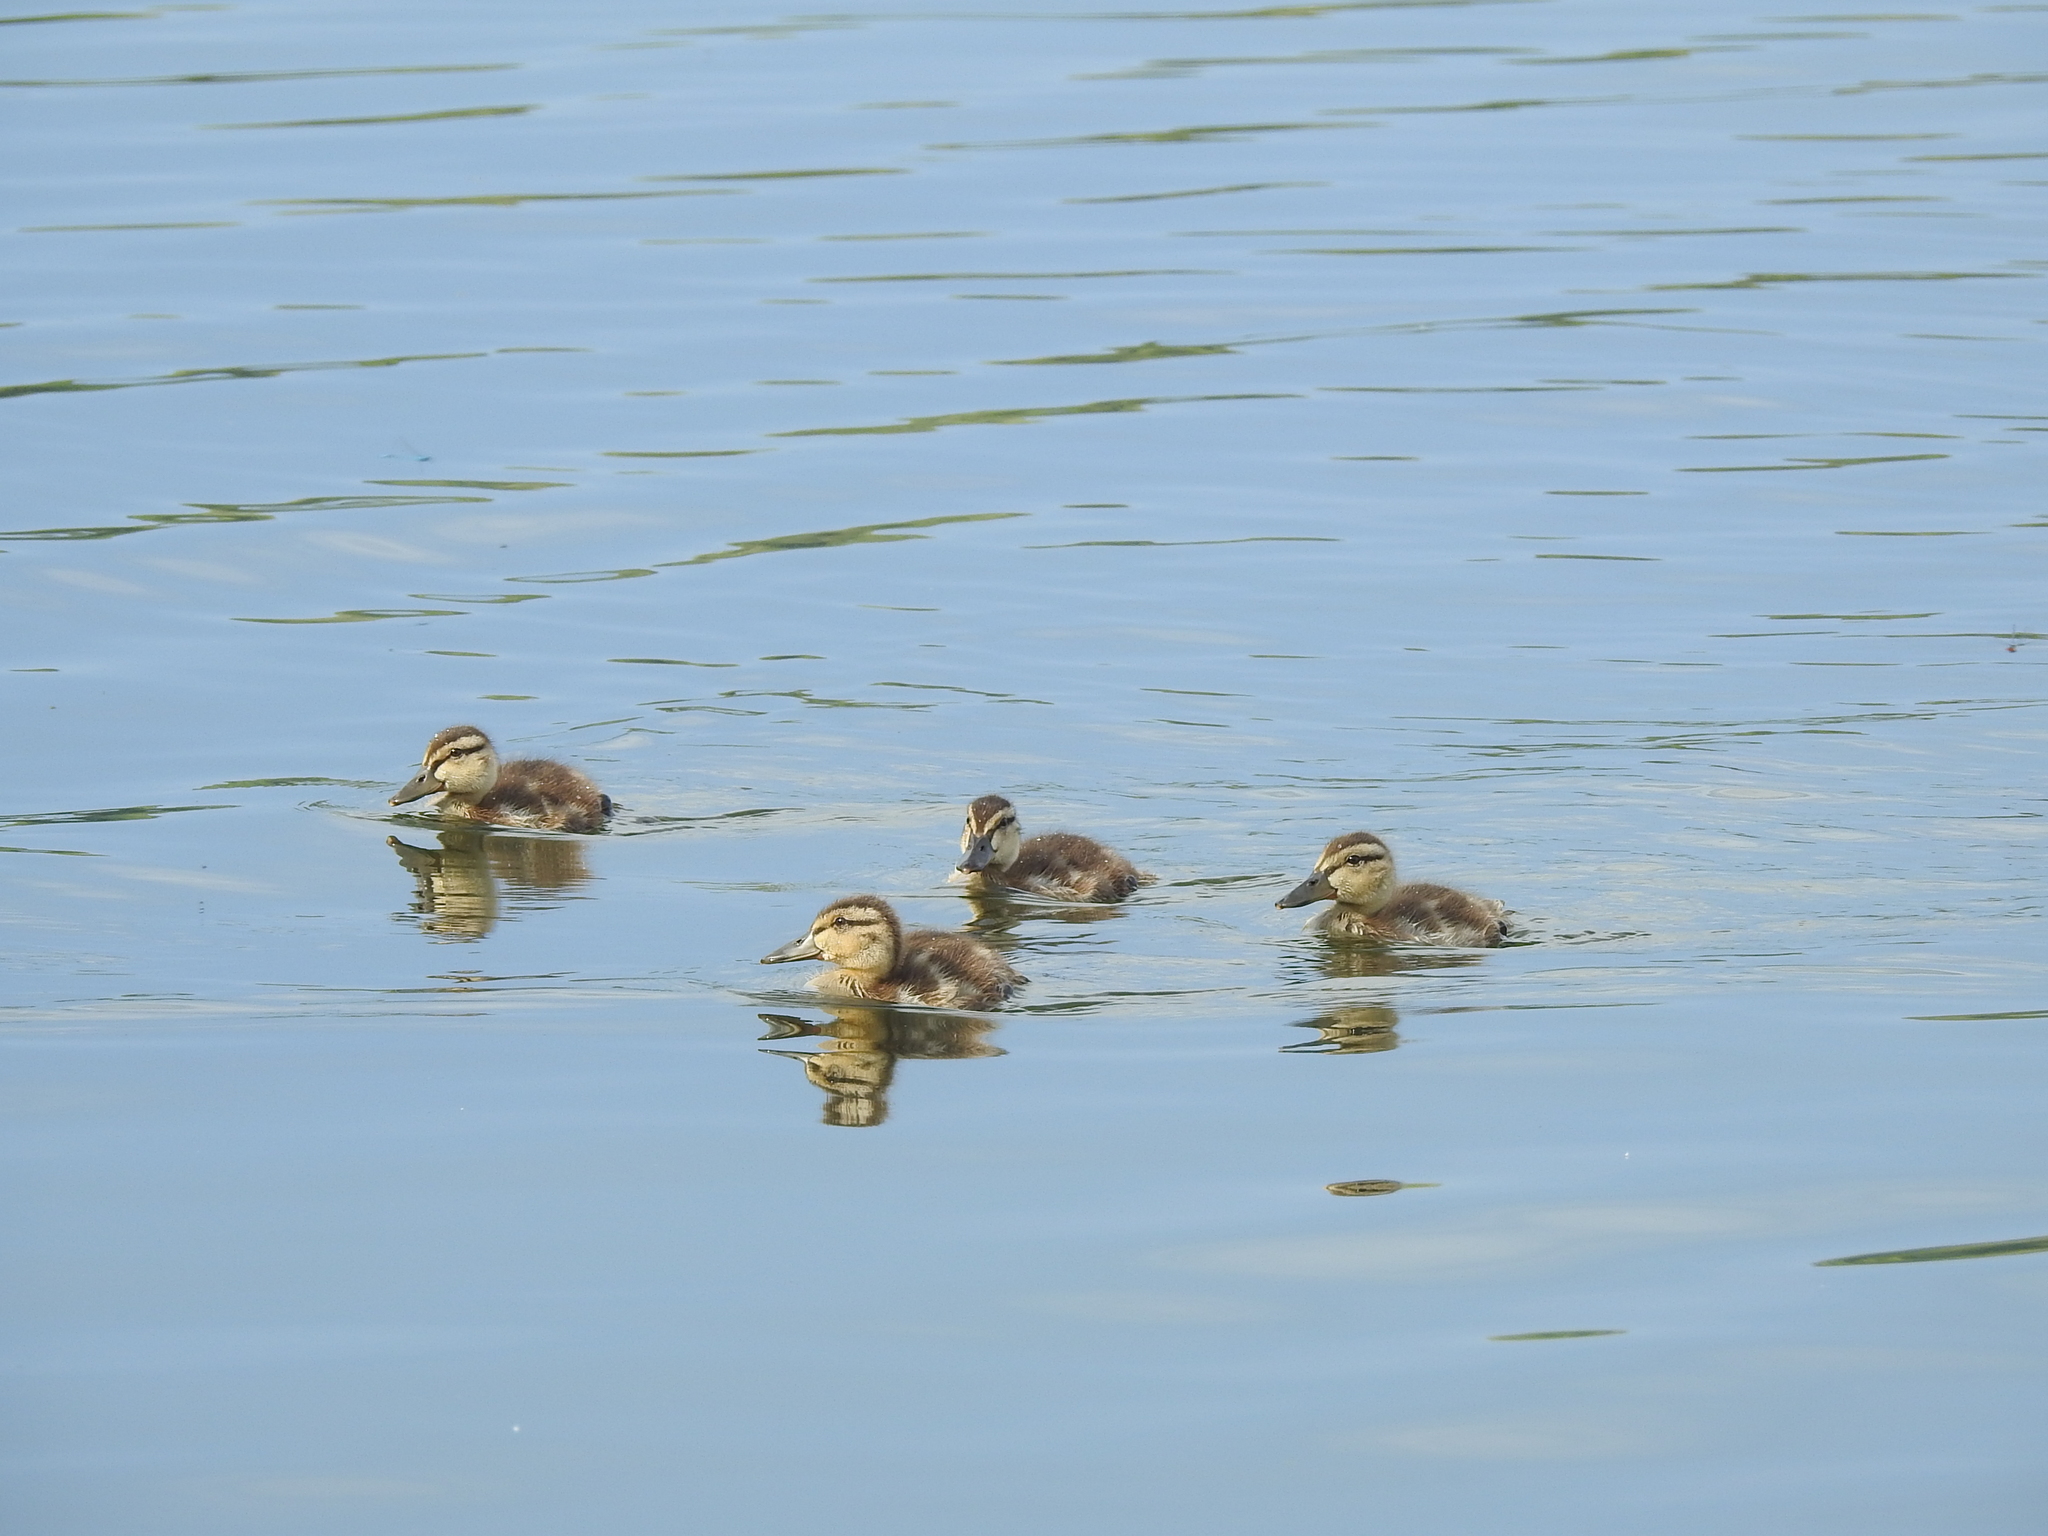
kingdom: Animalia
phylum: Chordata
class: Aves
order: Anseriformes
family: Anatidae
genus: Anas
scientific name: Anas platyrhynchos
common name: Mallard
